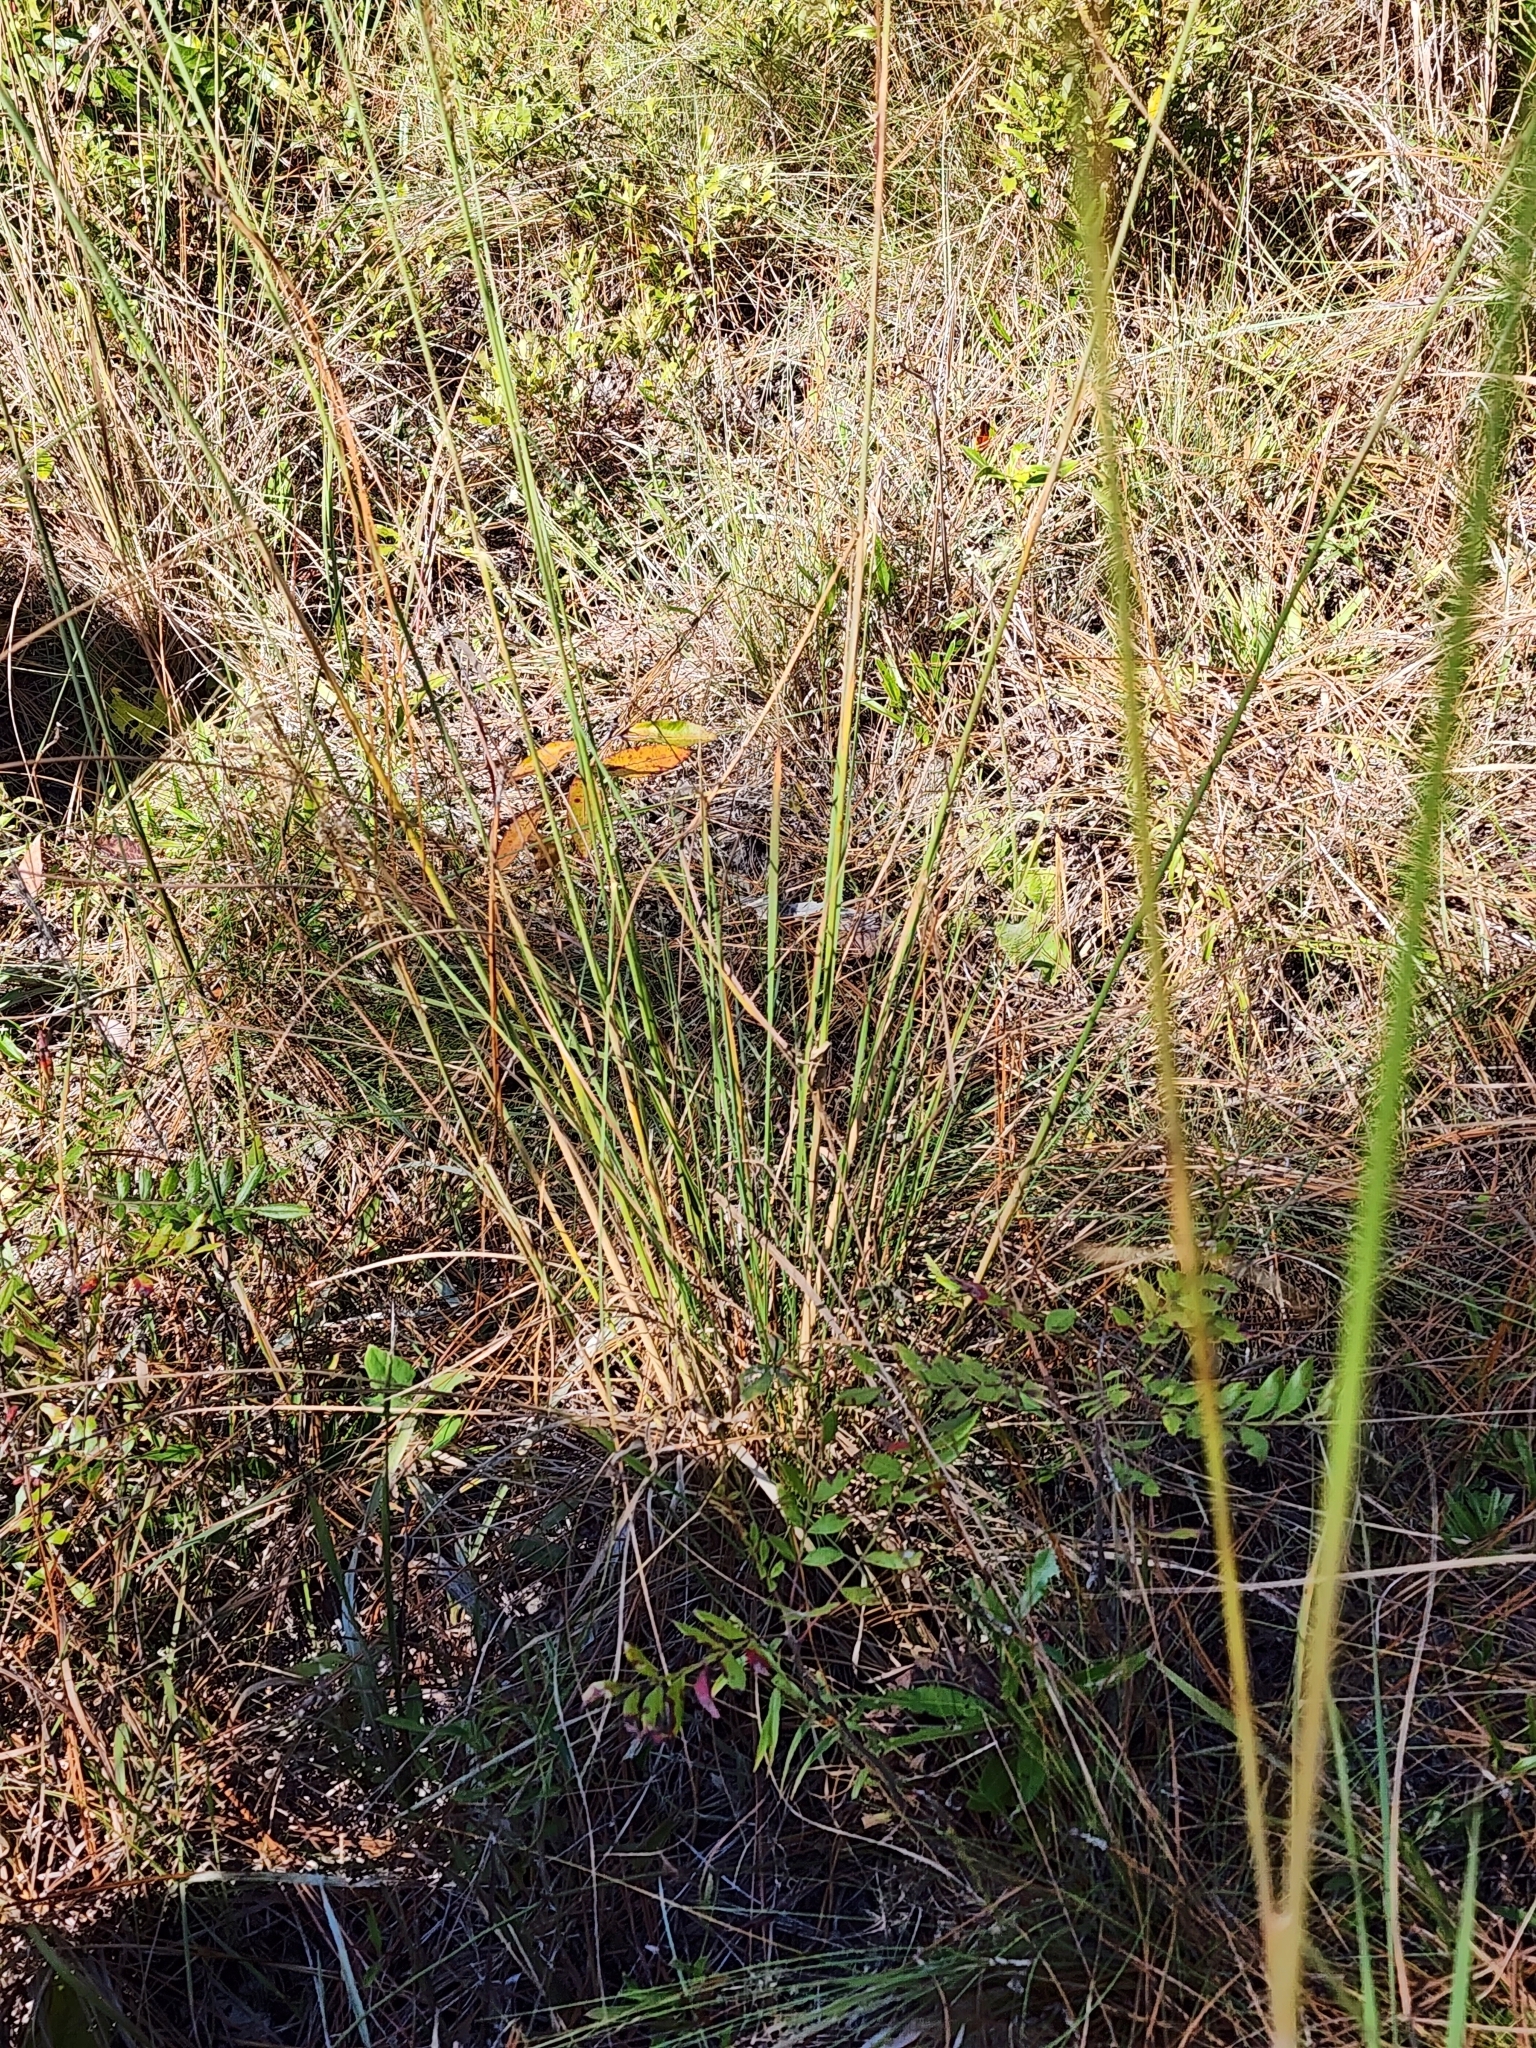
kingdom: Plantae
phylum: Tracheophyta
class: Liliopsida
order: Poales
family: Poaceae
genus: Sorghastrum
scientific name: Sorghastrum secundum
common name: Lopsided indian grass
